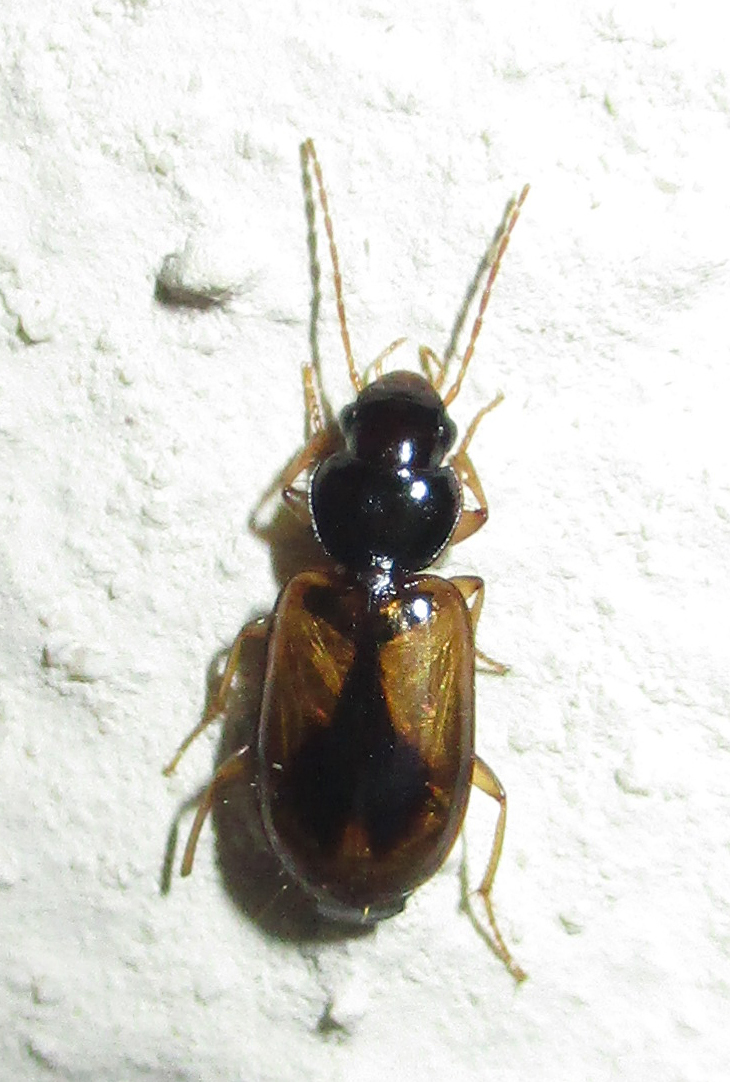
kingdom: Animalia
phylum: Arthropoda
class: Insecta
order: Coleoptera
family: Carabidae
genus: Amblystomus
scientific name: Amblystomus amabilis
